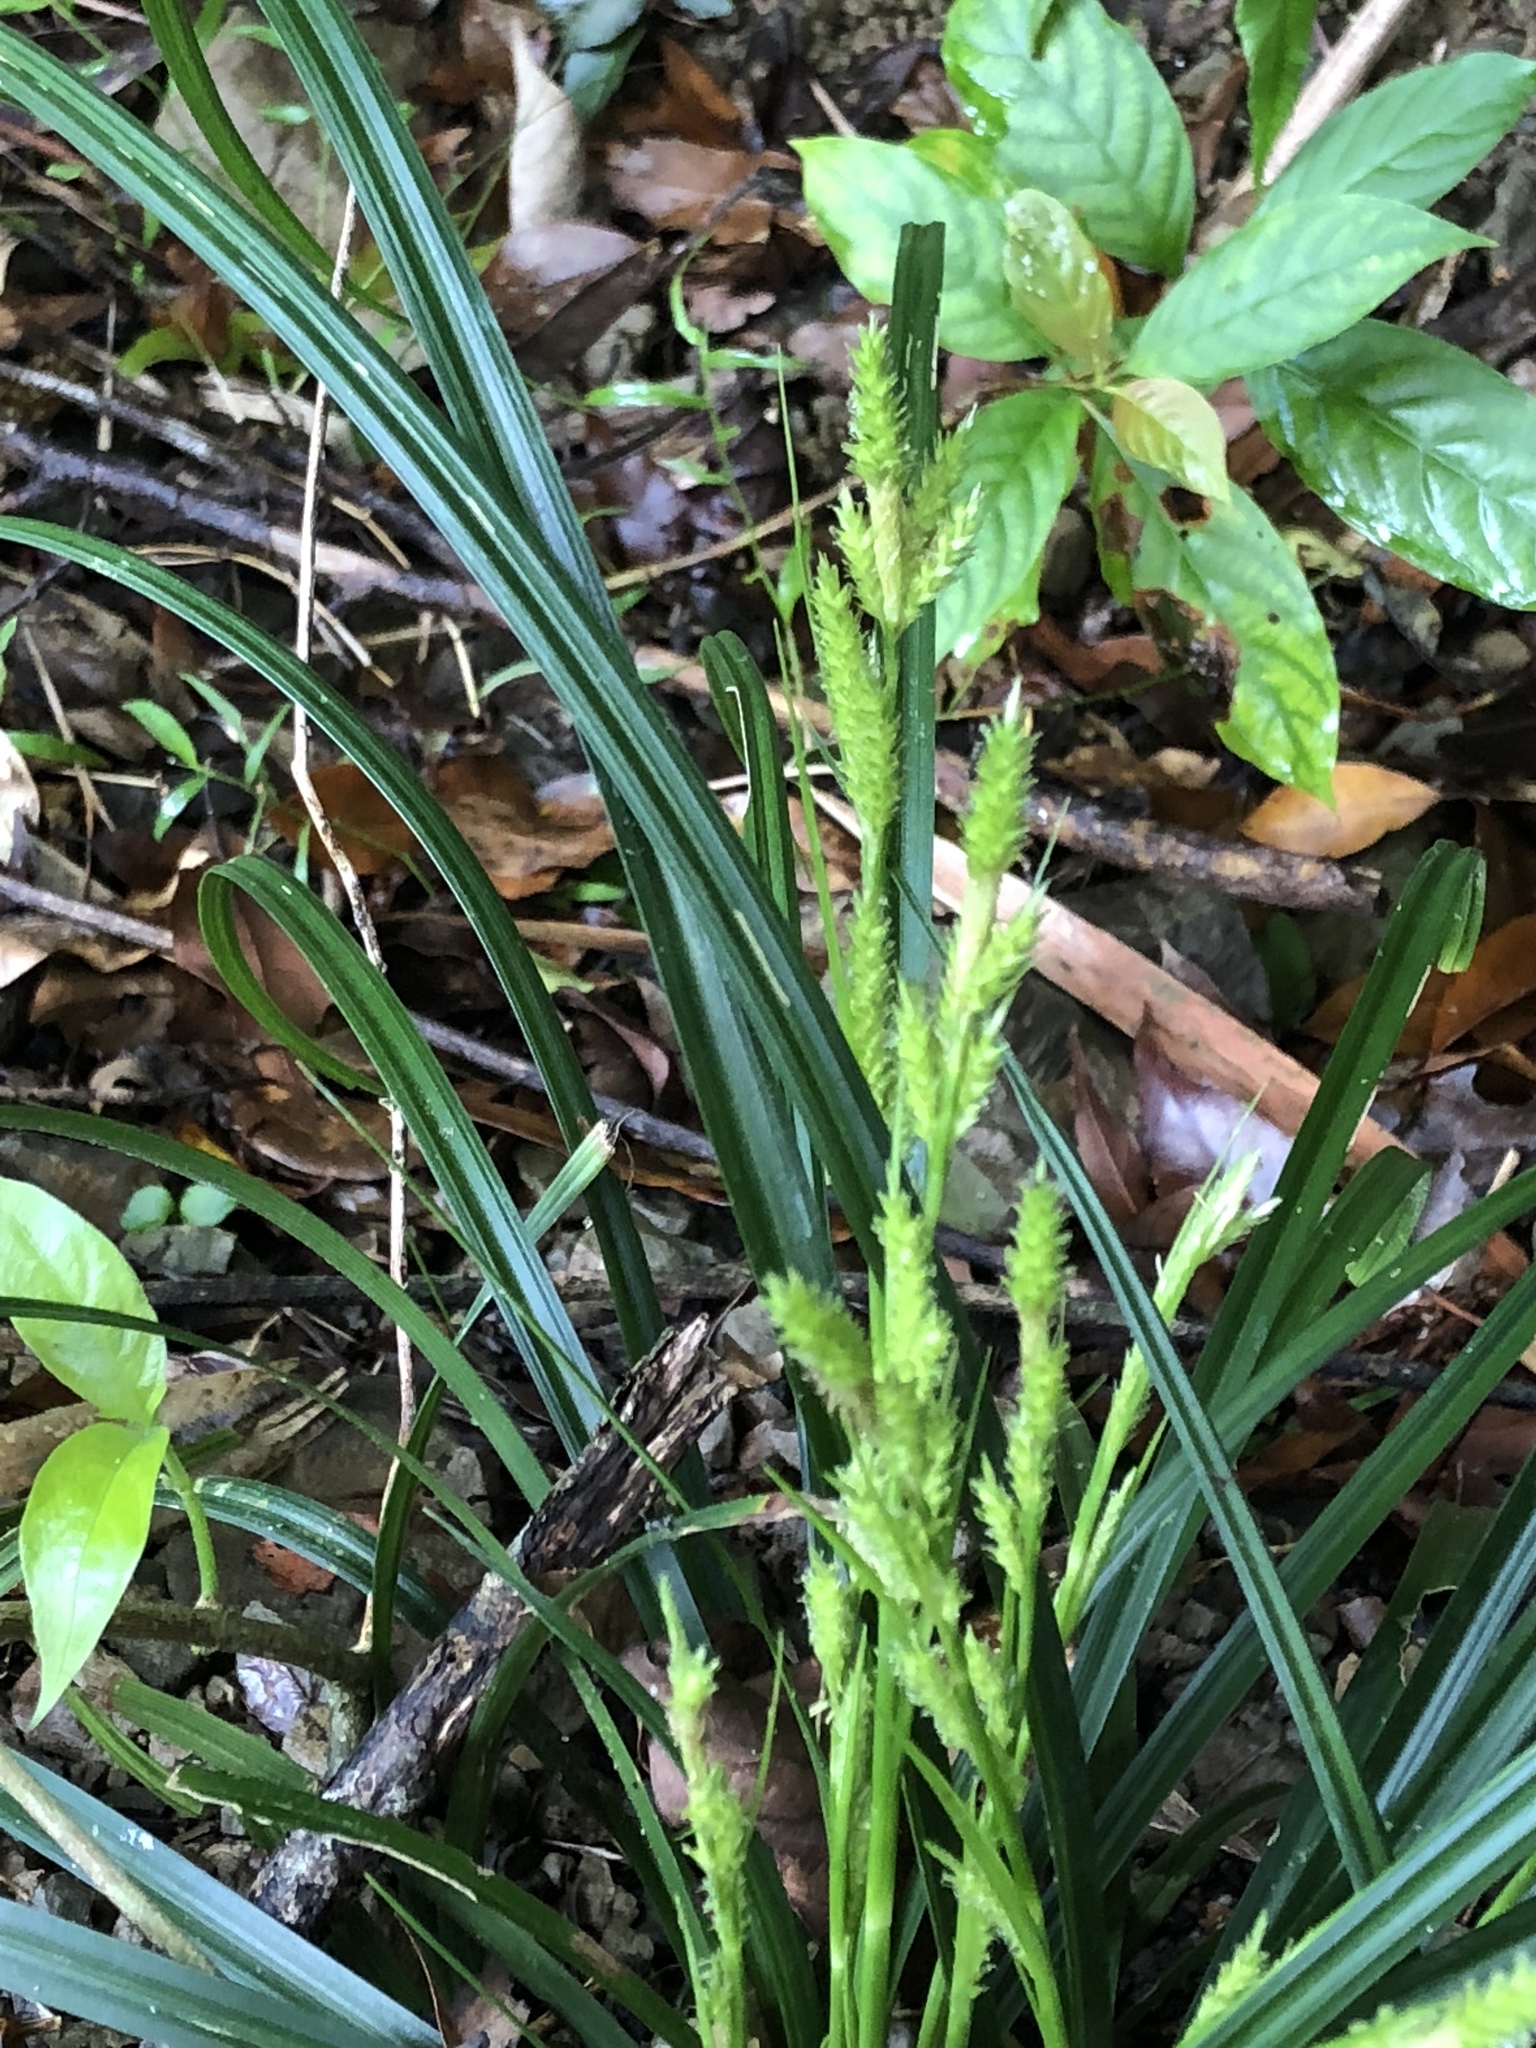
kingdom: Plantae
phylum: Tracheophyta
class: Liliopsida
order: Poales
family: Cyperaceae
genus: Carex
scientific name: Carex sociata
